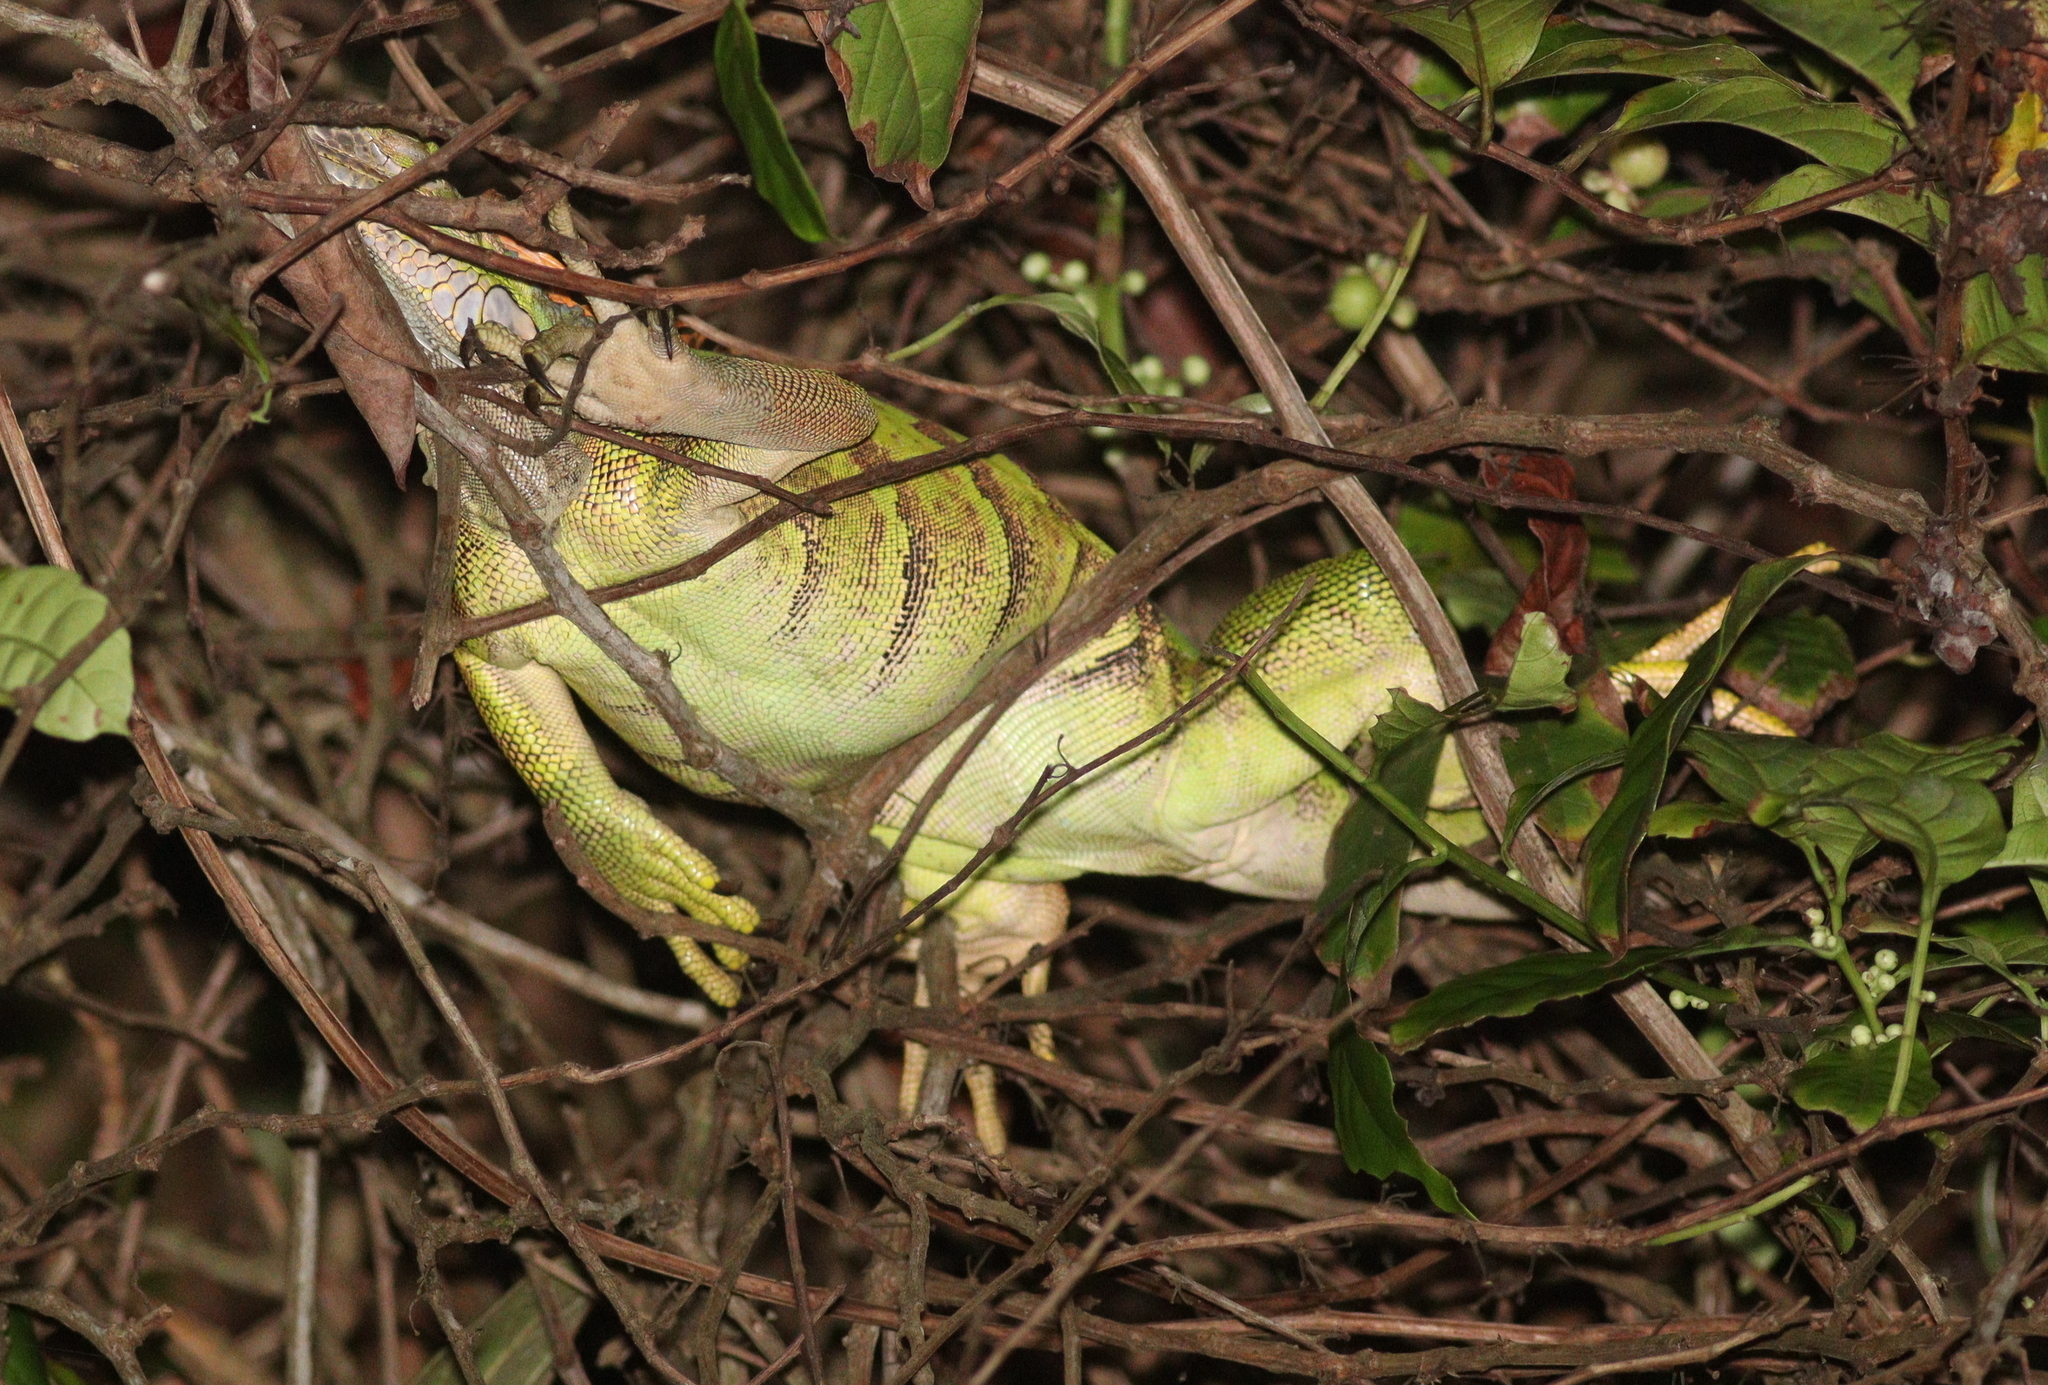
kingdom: Animalia
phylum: Chordata
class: Squamata
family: Iguanidae
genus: Iguana
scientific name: Iguana iguana
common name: Green iguana
